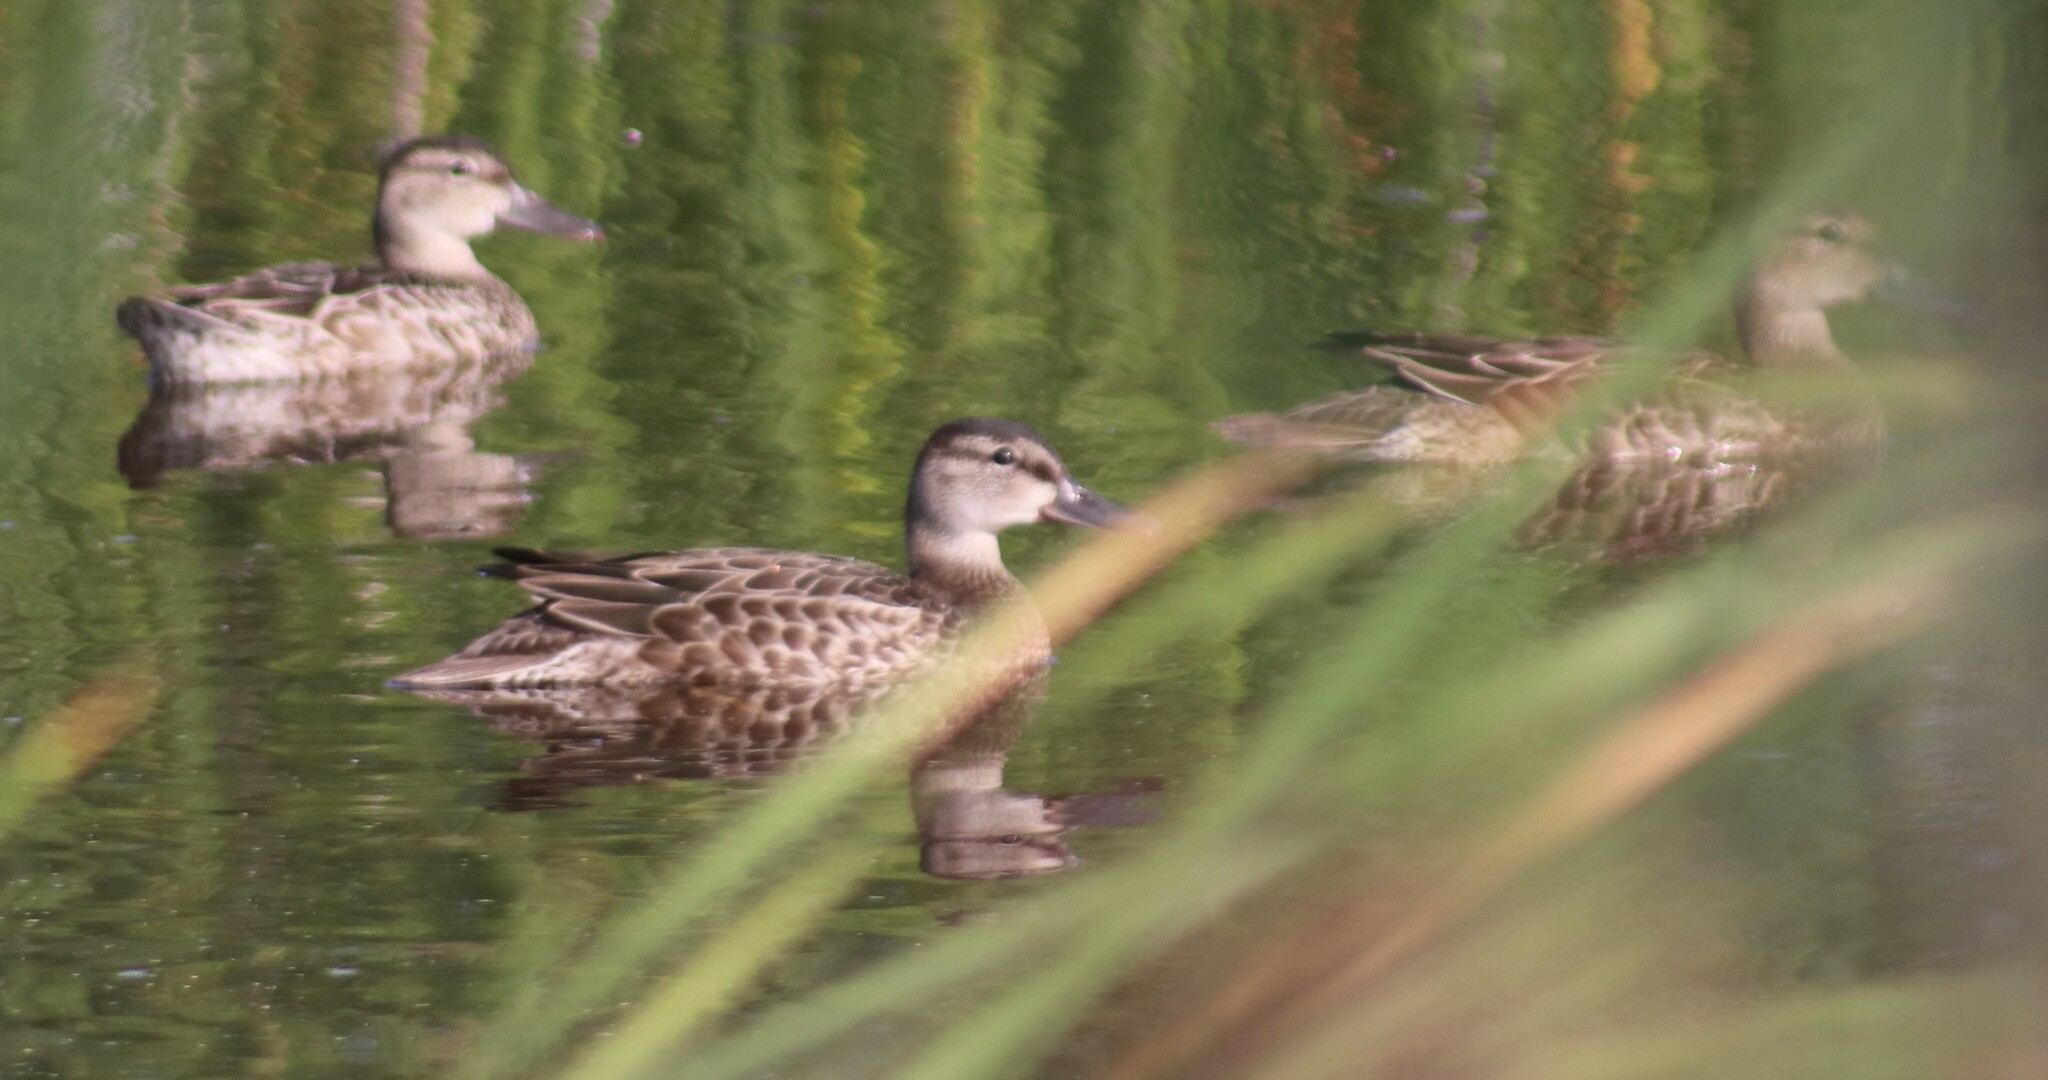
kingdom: Animalia
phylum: Chordata
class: Aves
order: Anseriformes
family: Anatidae
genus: Spatula
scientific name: Spatula discors
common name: Blue-winged teal
